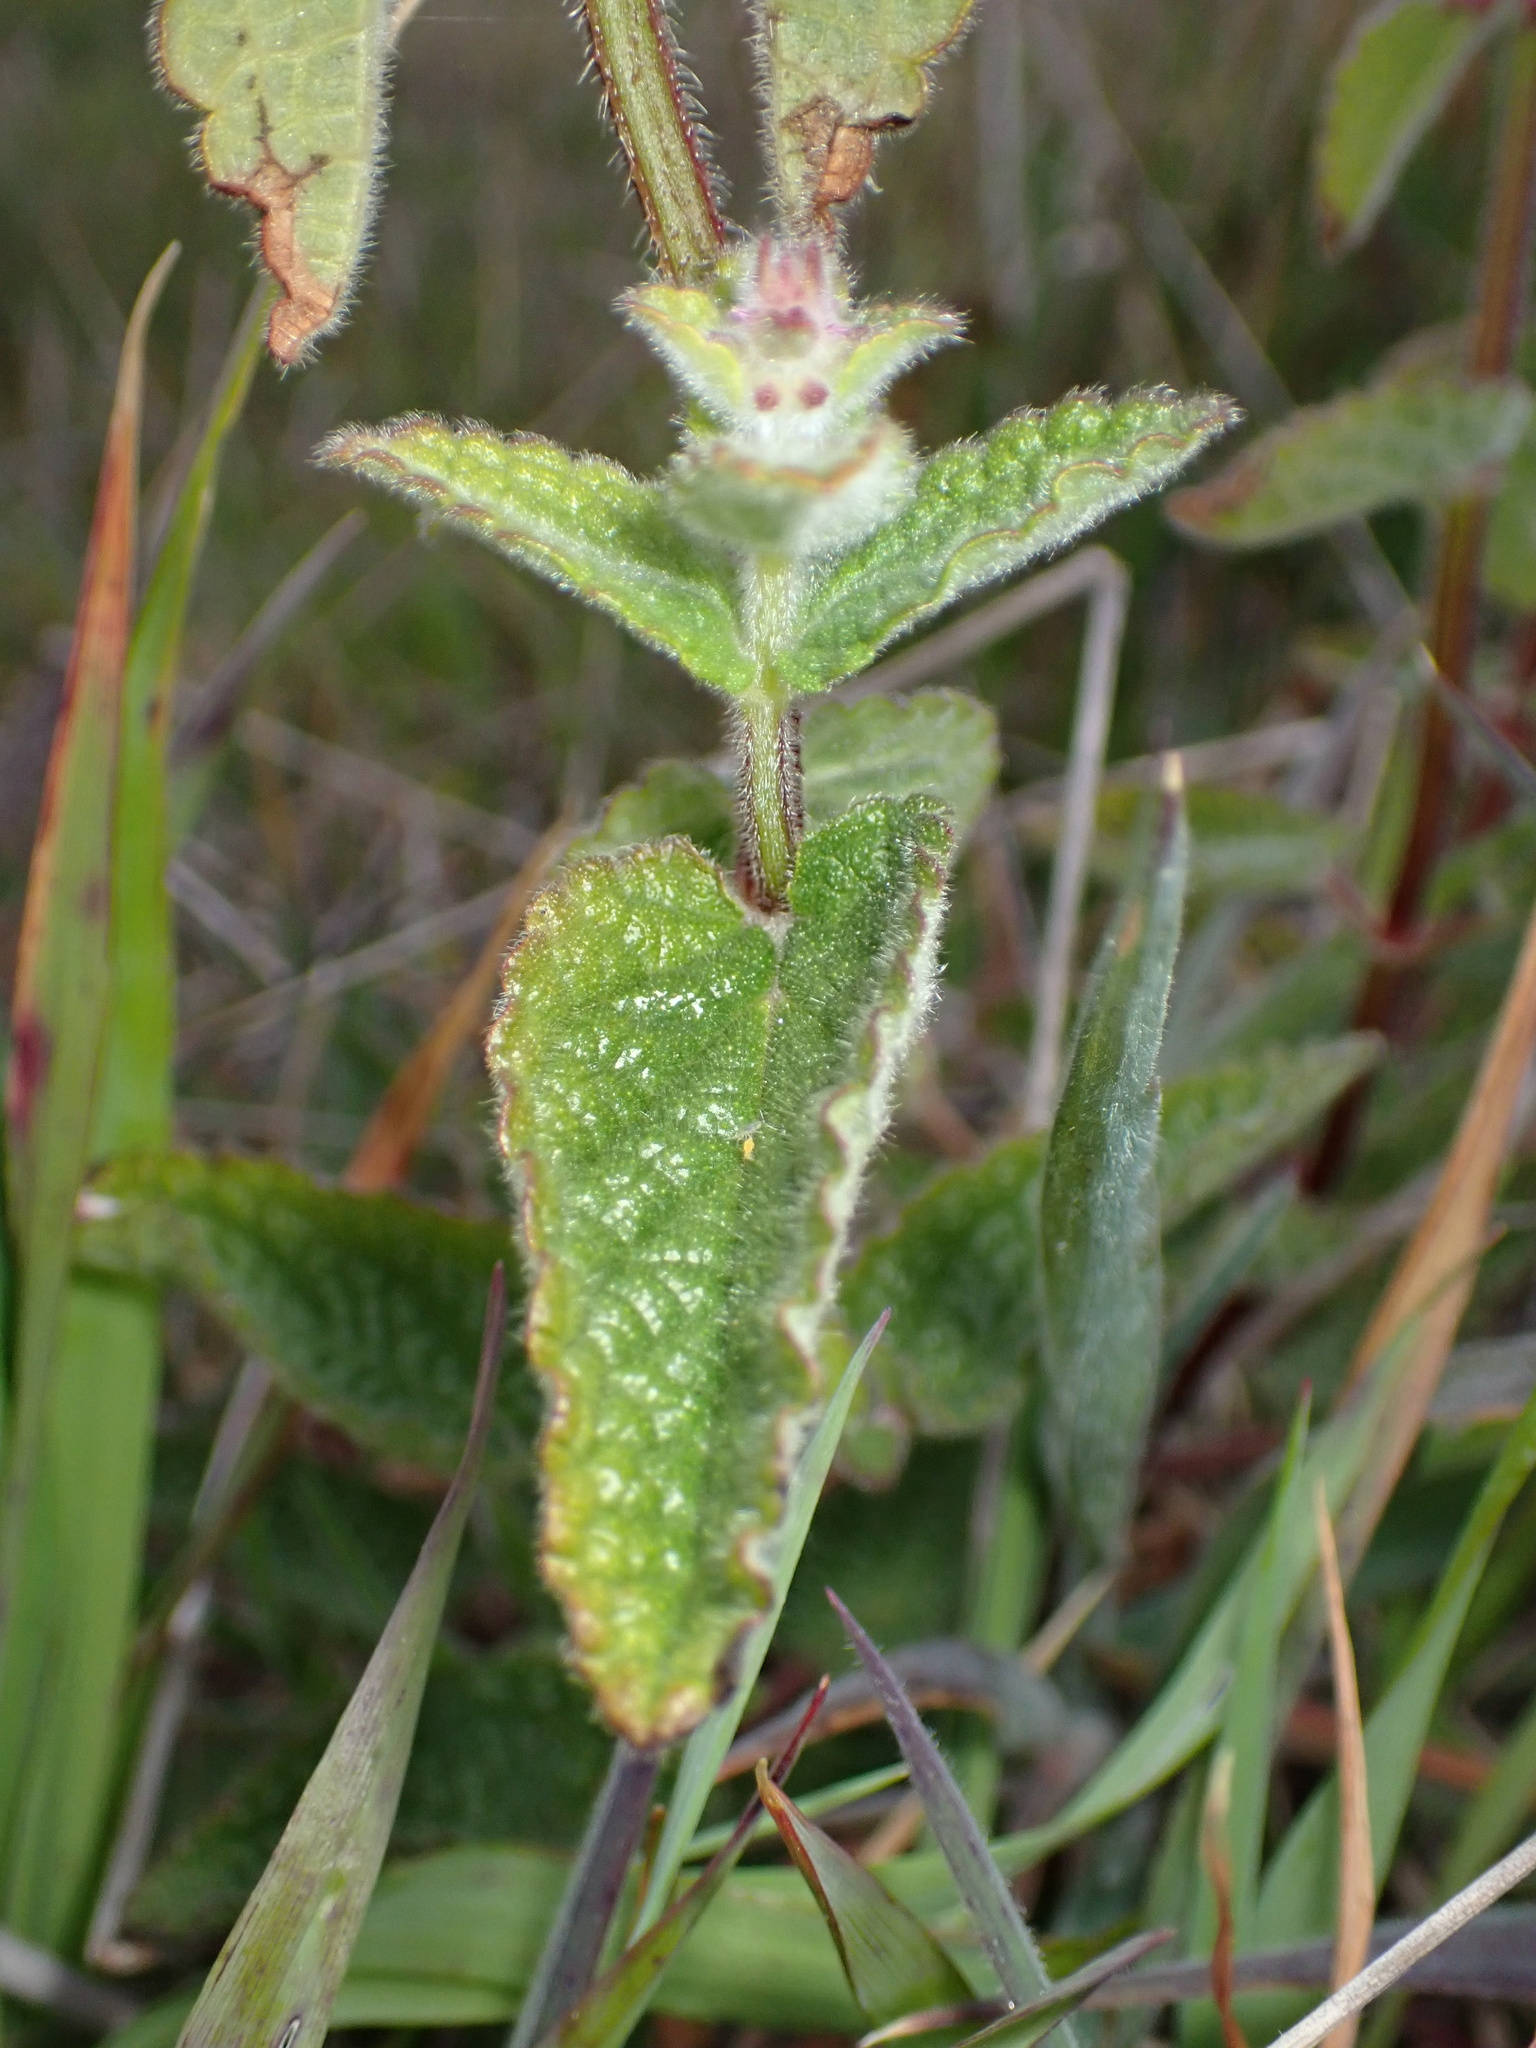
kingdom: Plantae
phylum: Tracheophyta
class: Magnoliopsida
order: Lamiales
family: Lamiaceae
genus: Stachys
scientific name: Stachys rigida
